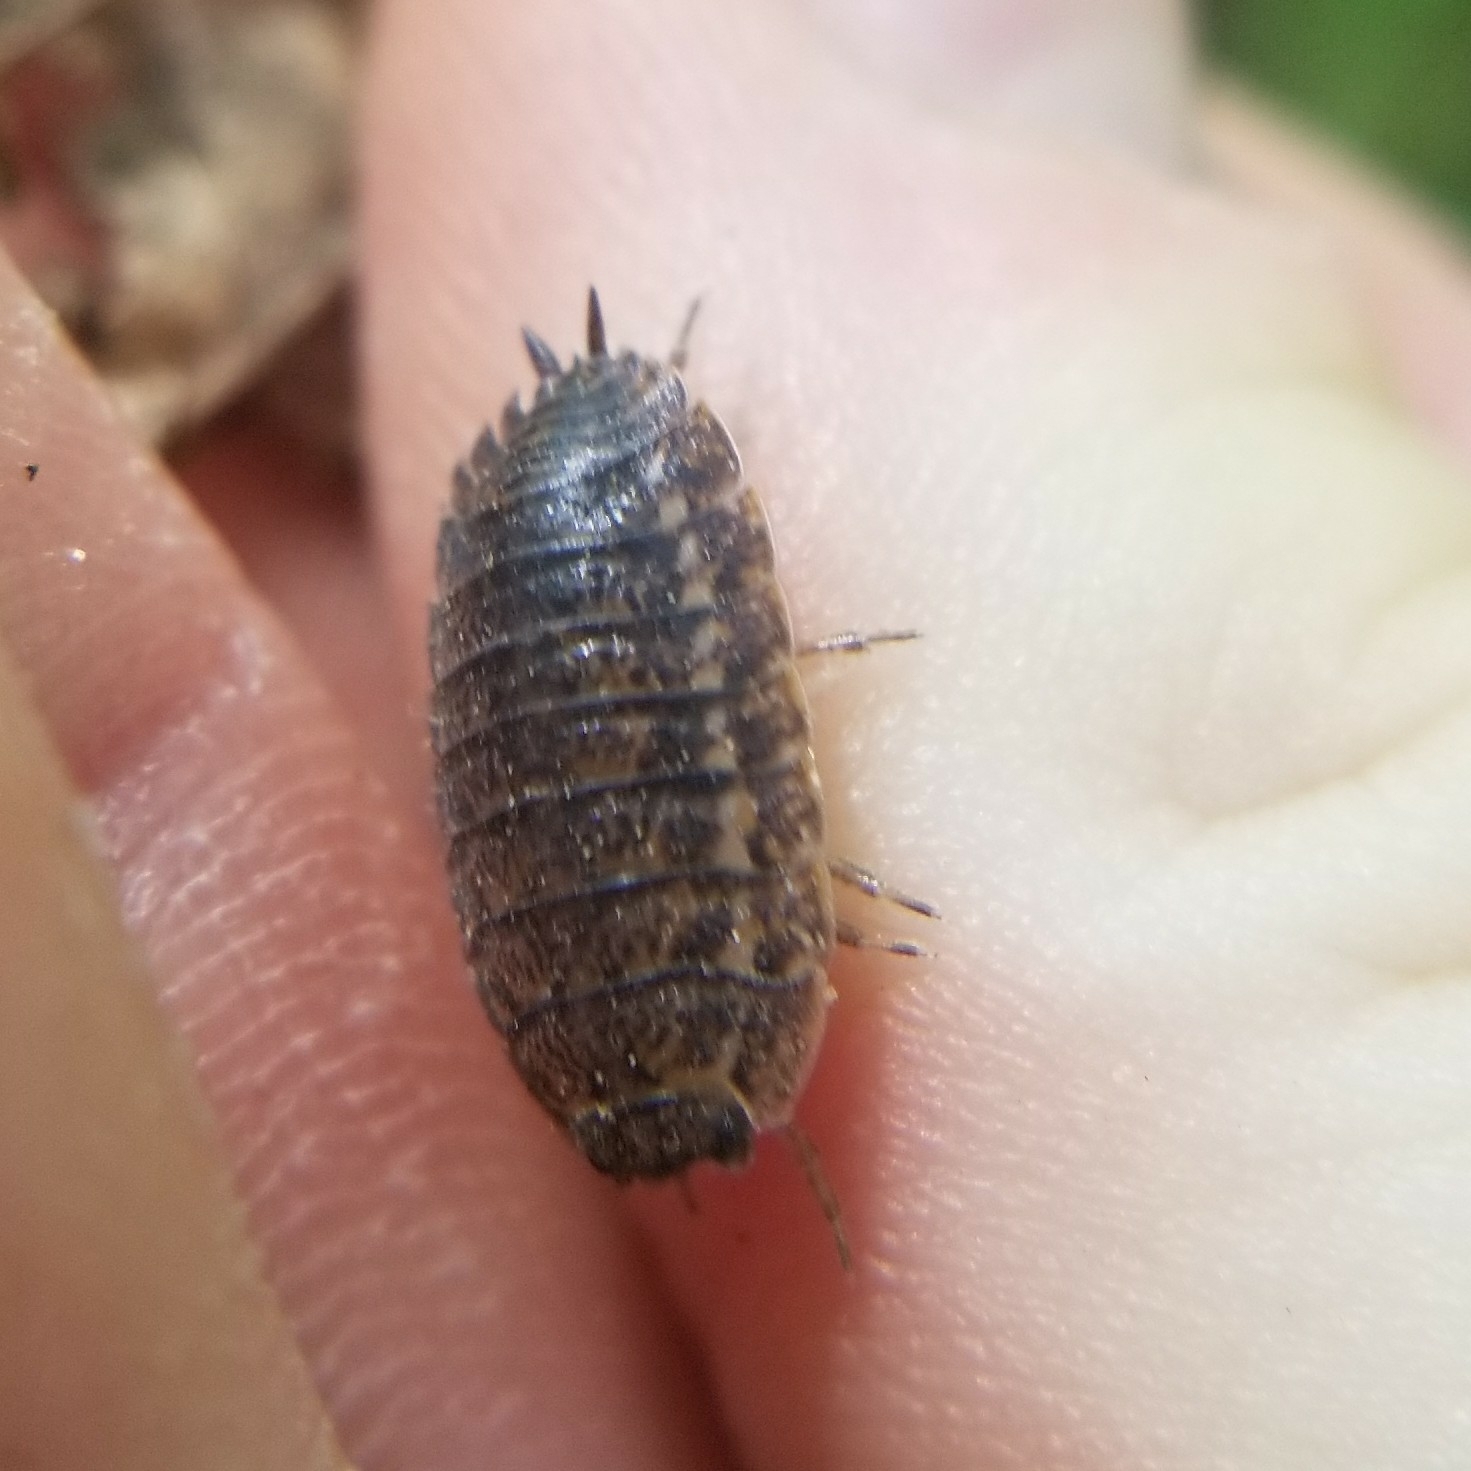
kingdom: Animalia
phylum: Arthropoda
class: Malacostraca
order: Isopoda
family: Trachelipodidae
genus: Trachelipus
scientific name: Trachelipus rathkii
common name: Isopod
